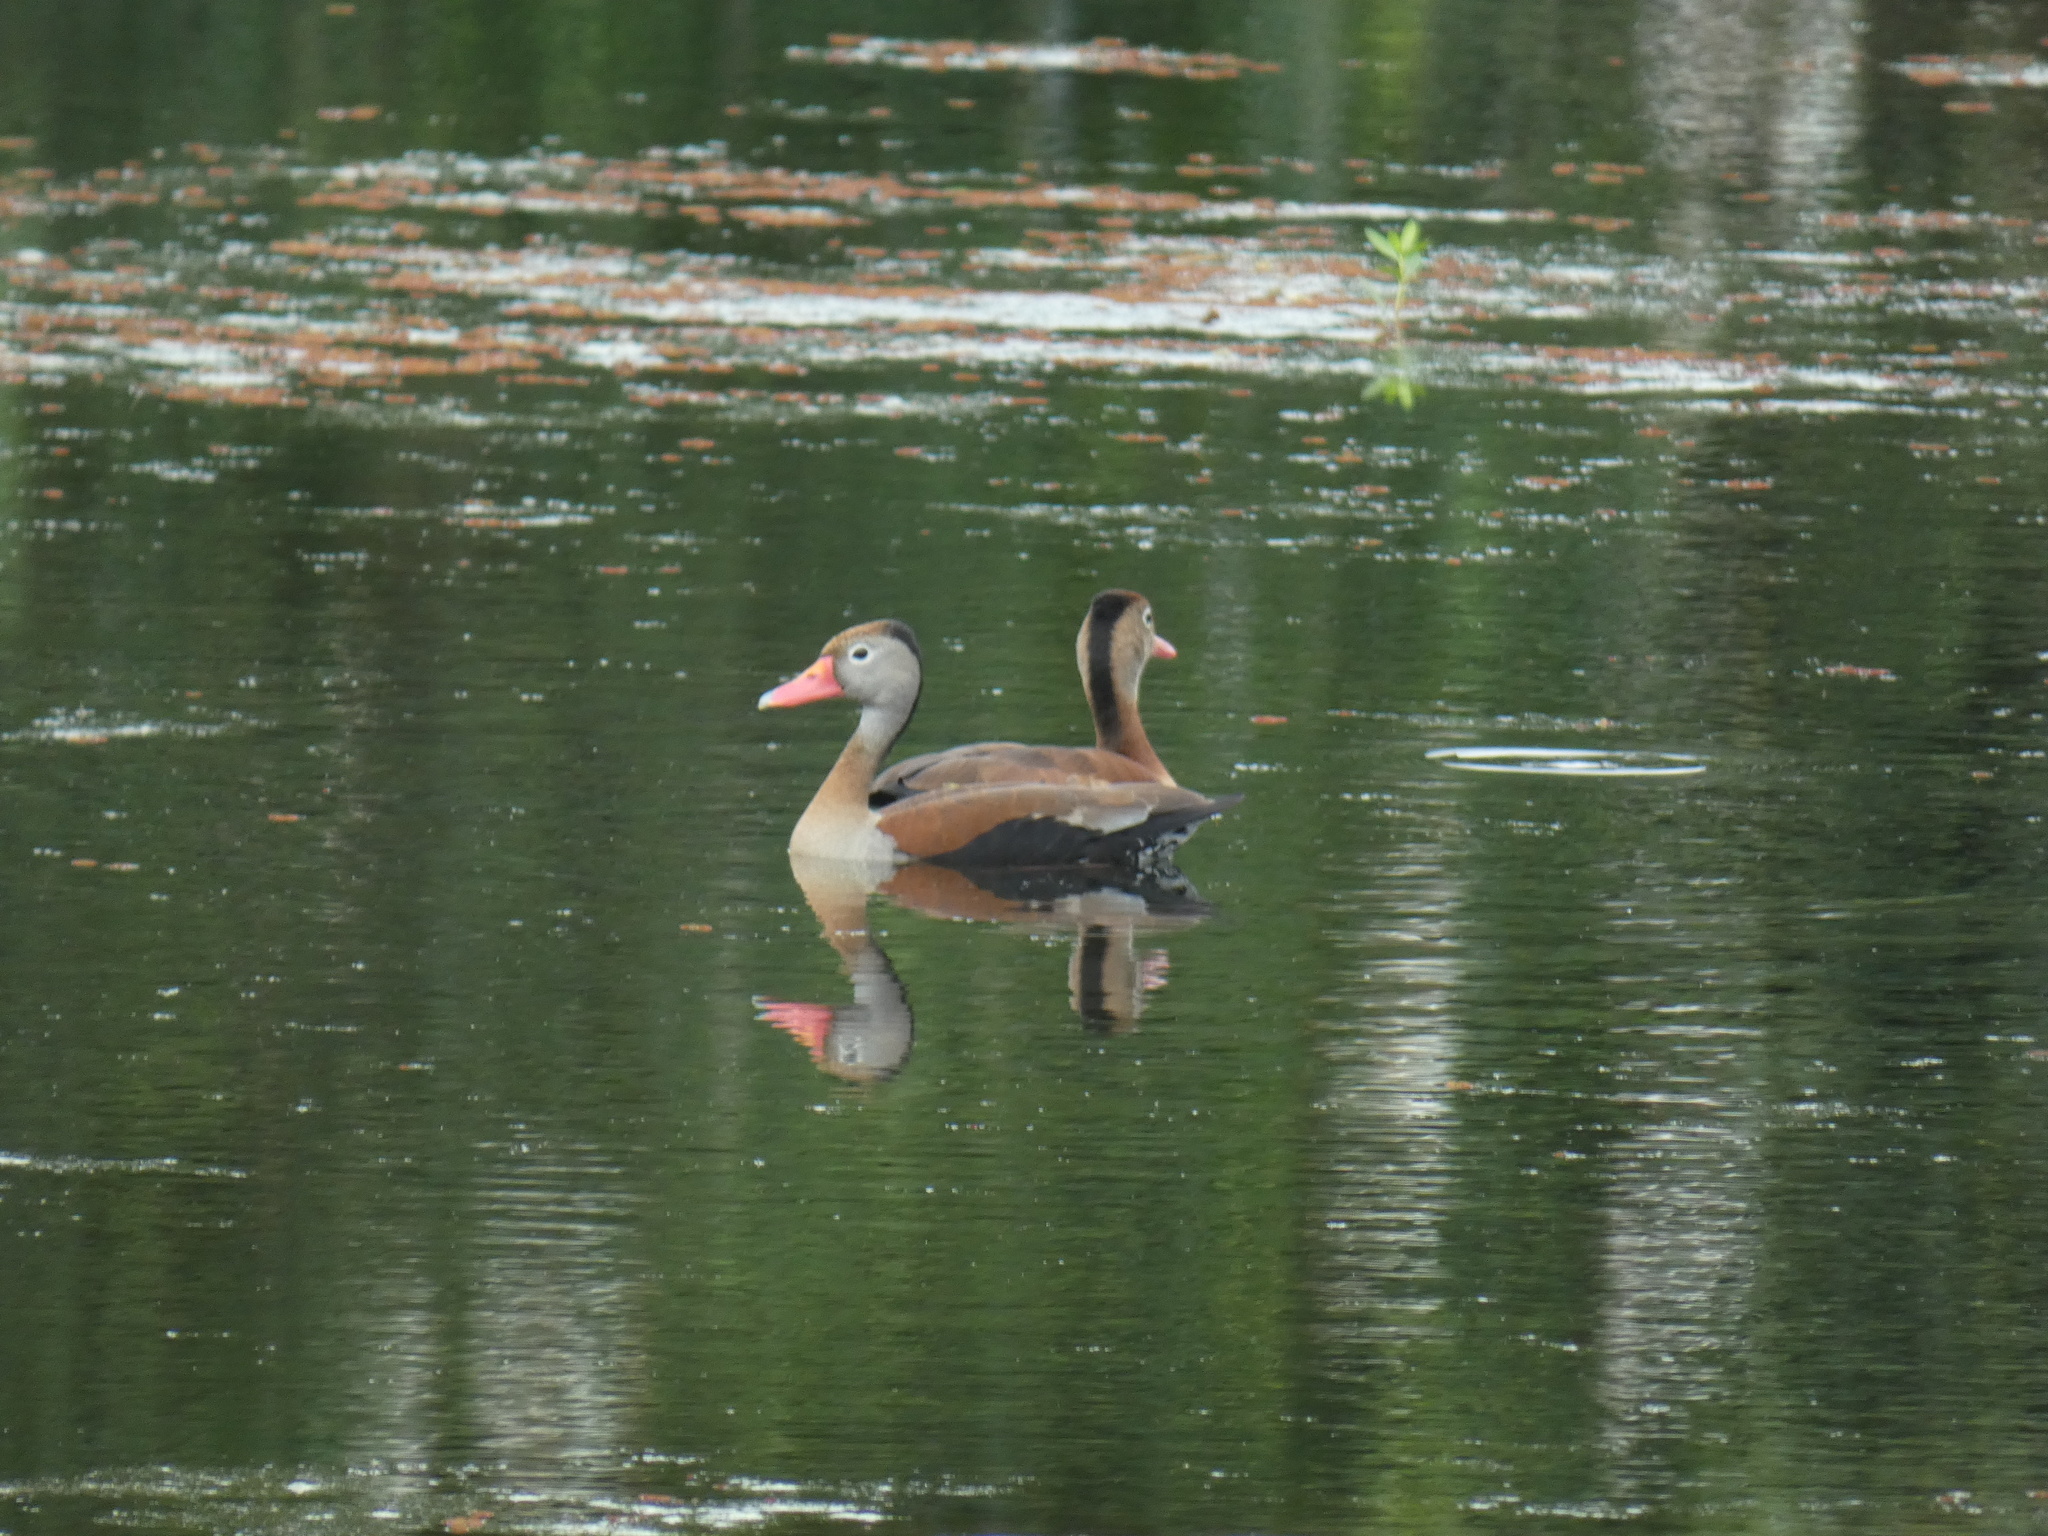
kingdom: Animalia
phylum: Chordata
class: Aves
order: Anseriformes
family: Anatidae
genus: Dendrocygna
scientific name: Dendrocygna autumnalis
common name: Black-bellied whistling duck
